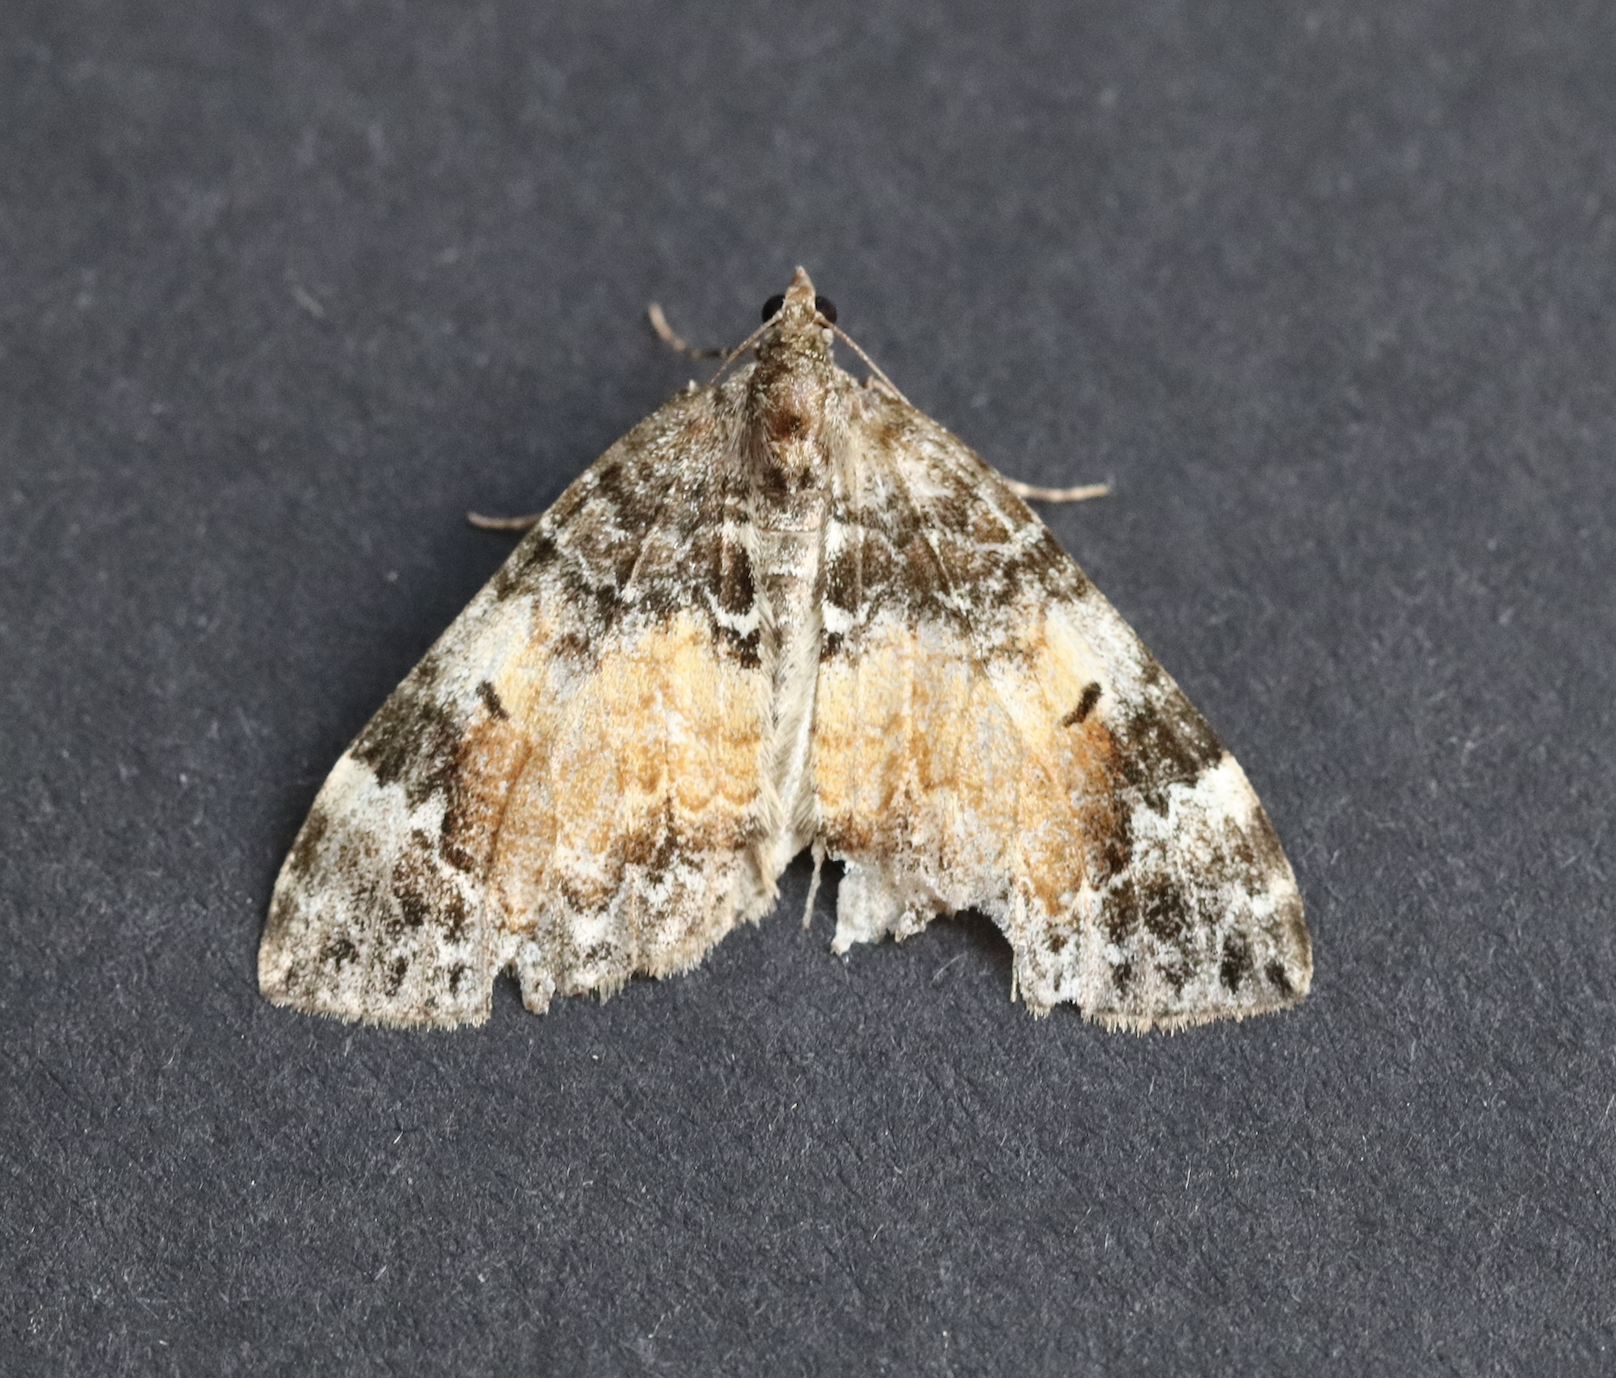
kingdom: Animalia
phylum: Arthropoda
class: Insecta
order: Lepidoptera
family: Geometridae
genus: Dysstroma
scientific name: Dysstroma truncata
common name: Common marbled carpet
